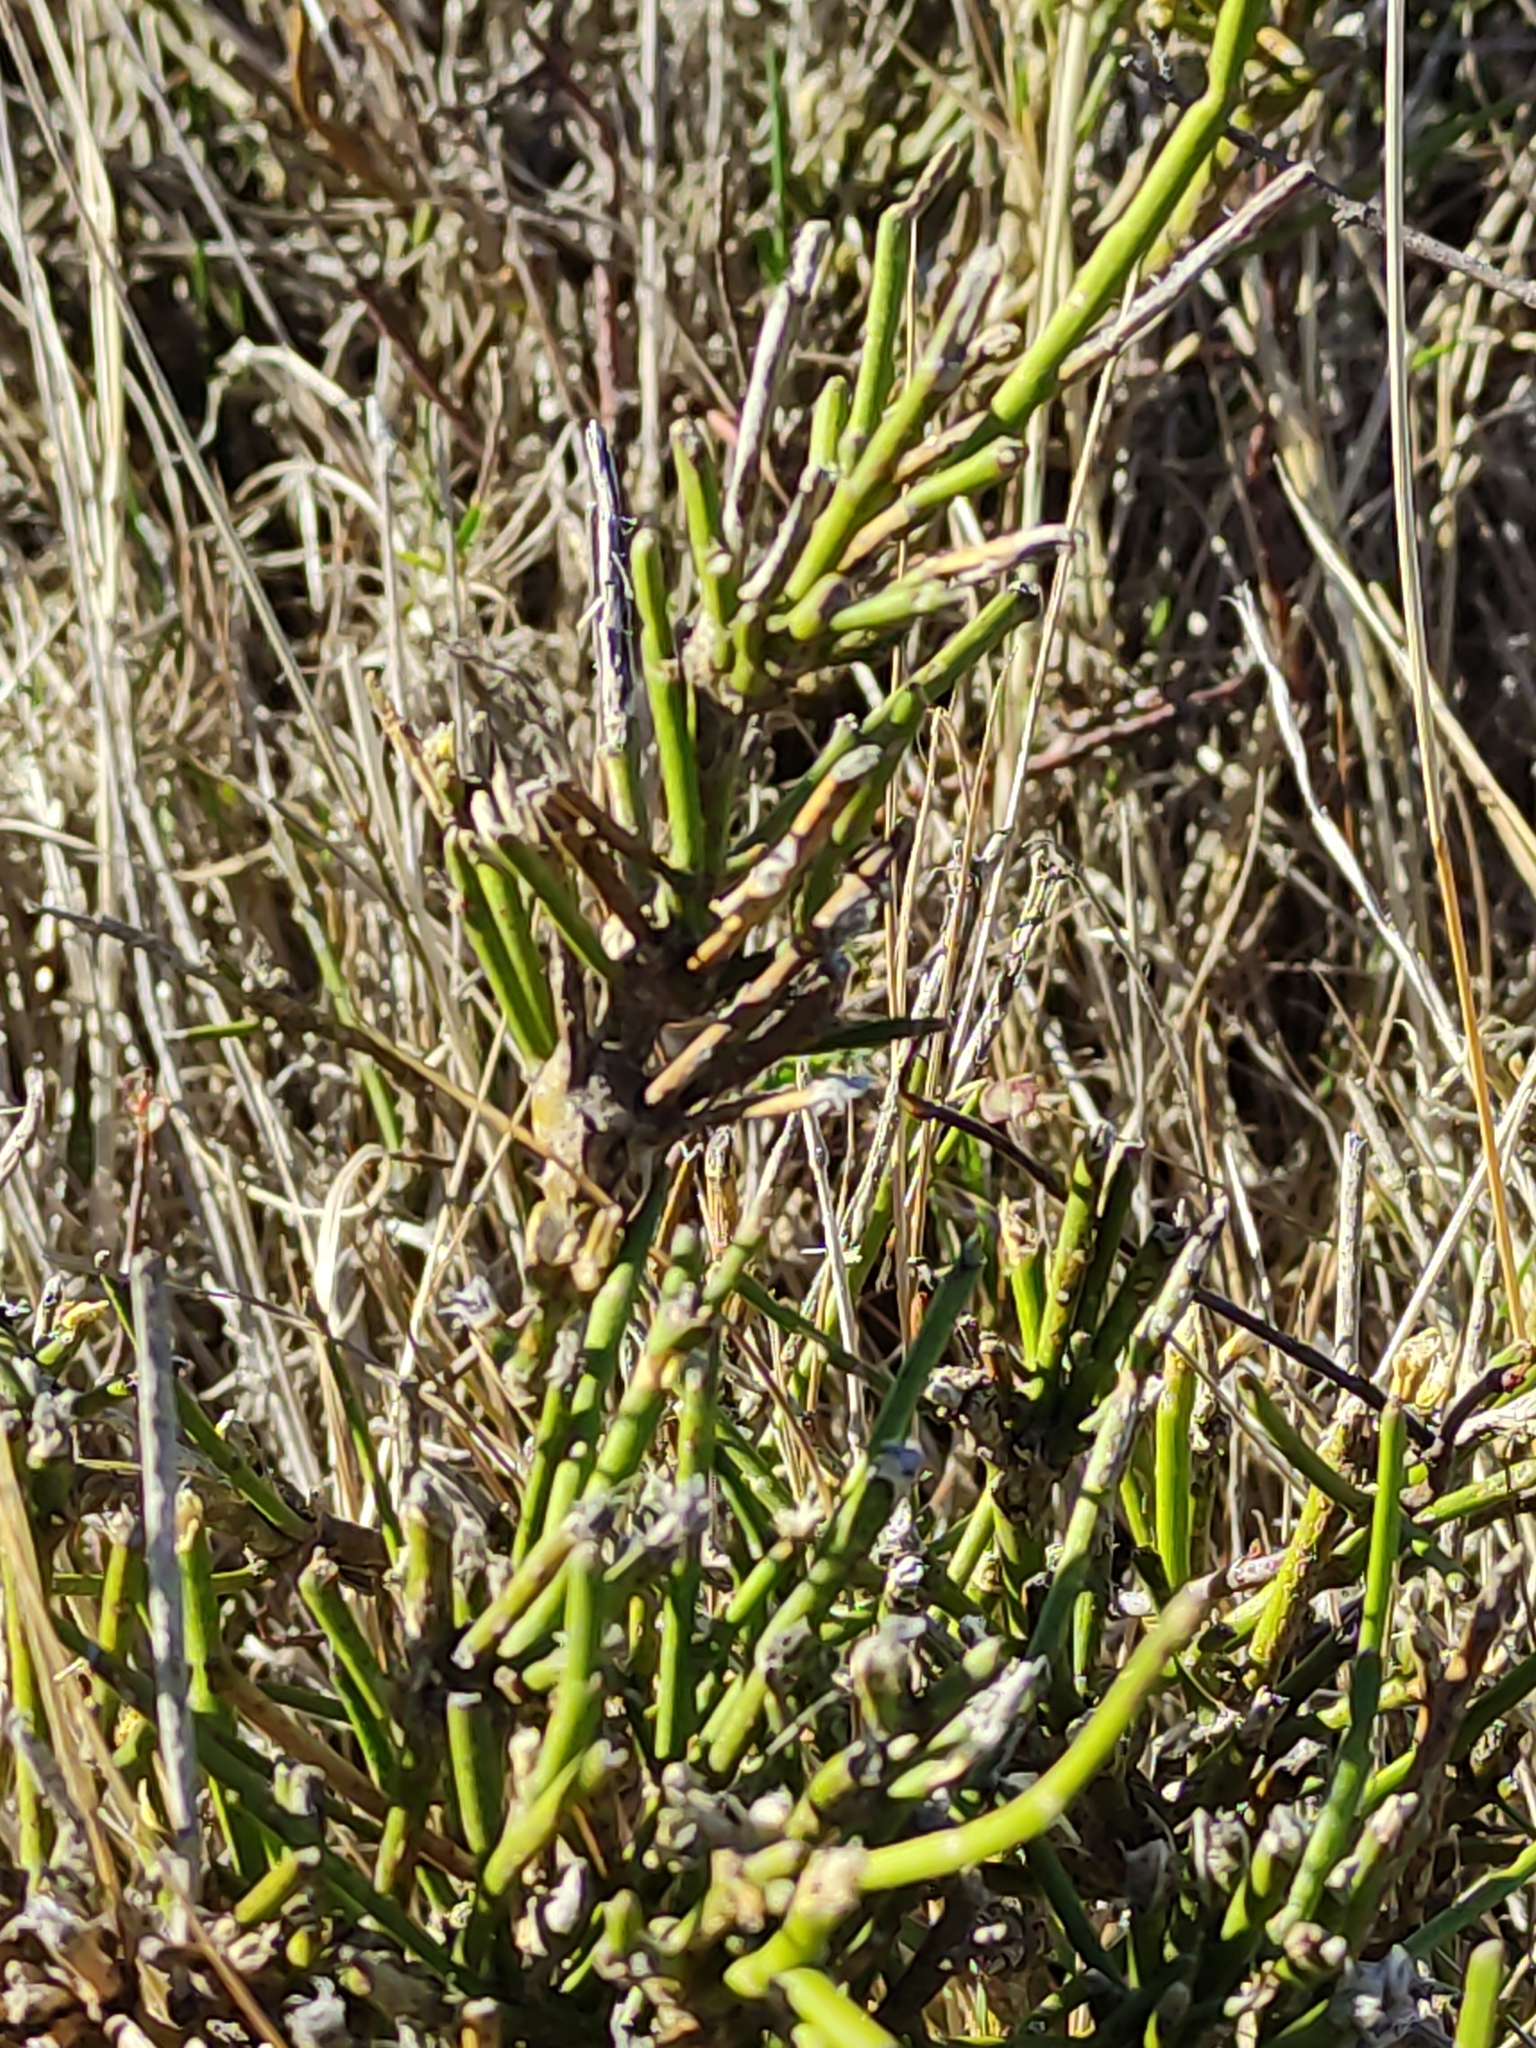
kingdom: Plantae
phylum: Tracheophyta
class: Magnoliopsida
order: Fabales
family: Fabaceae
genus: Carmichaelia
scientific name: Carmichaelia australis
